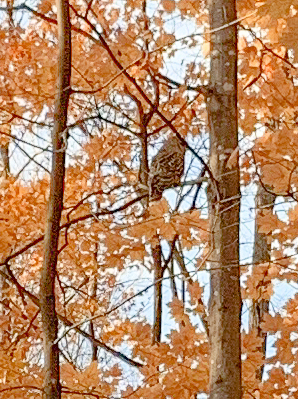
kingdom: Animalia
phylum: Chordata
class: Aves
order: Strigiformes
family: Strigidae
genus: Strix
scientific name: Strix varia
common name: Barred owl
